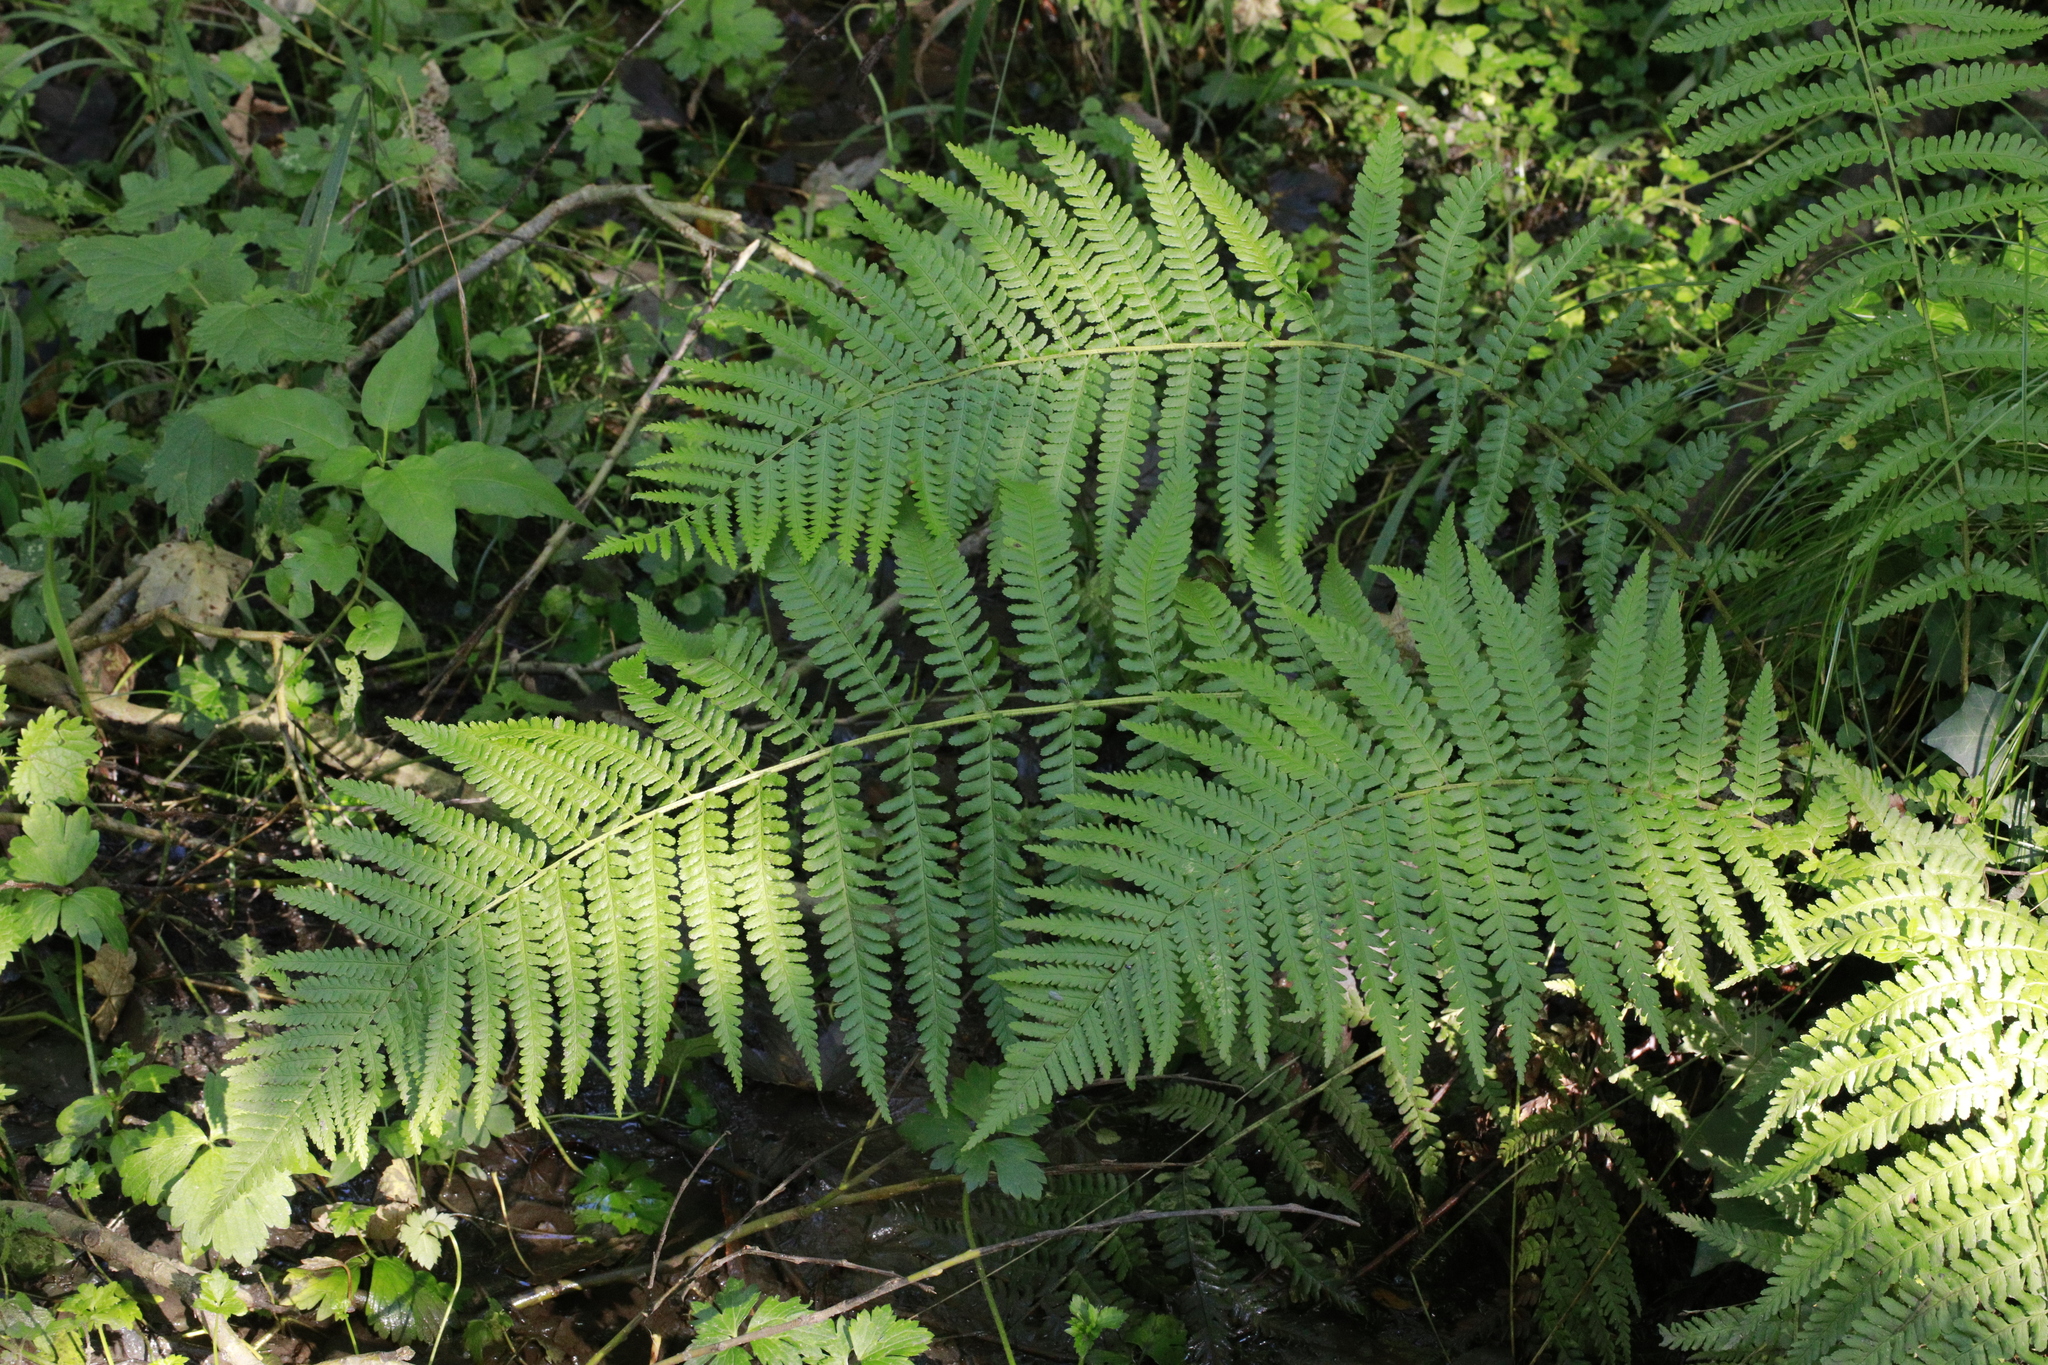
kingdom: Plantae
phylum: Tracheophyta
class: Polypodiopsida
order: Polypodiales
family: Dryopteridaceae
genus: Dryopteris
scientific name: Dryopteris filix-mas
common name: Male fern
